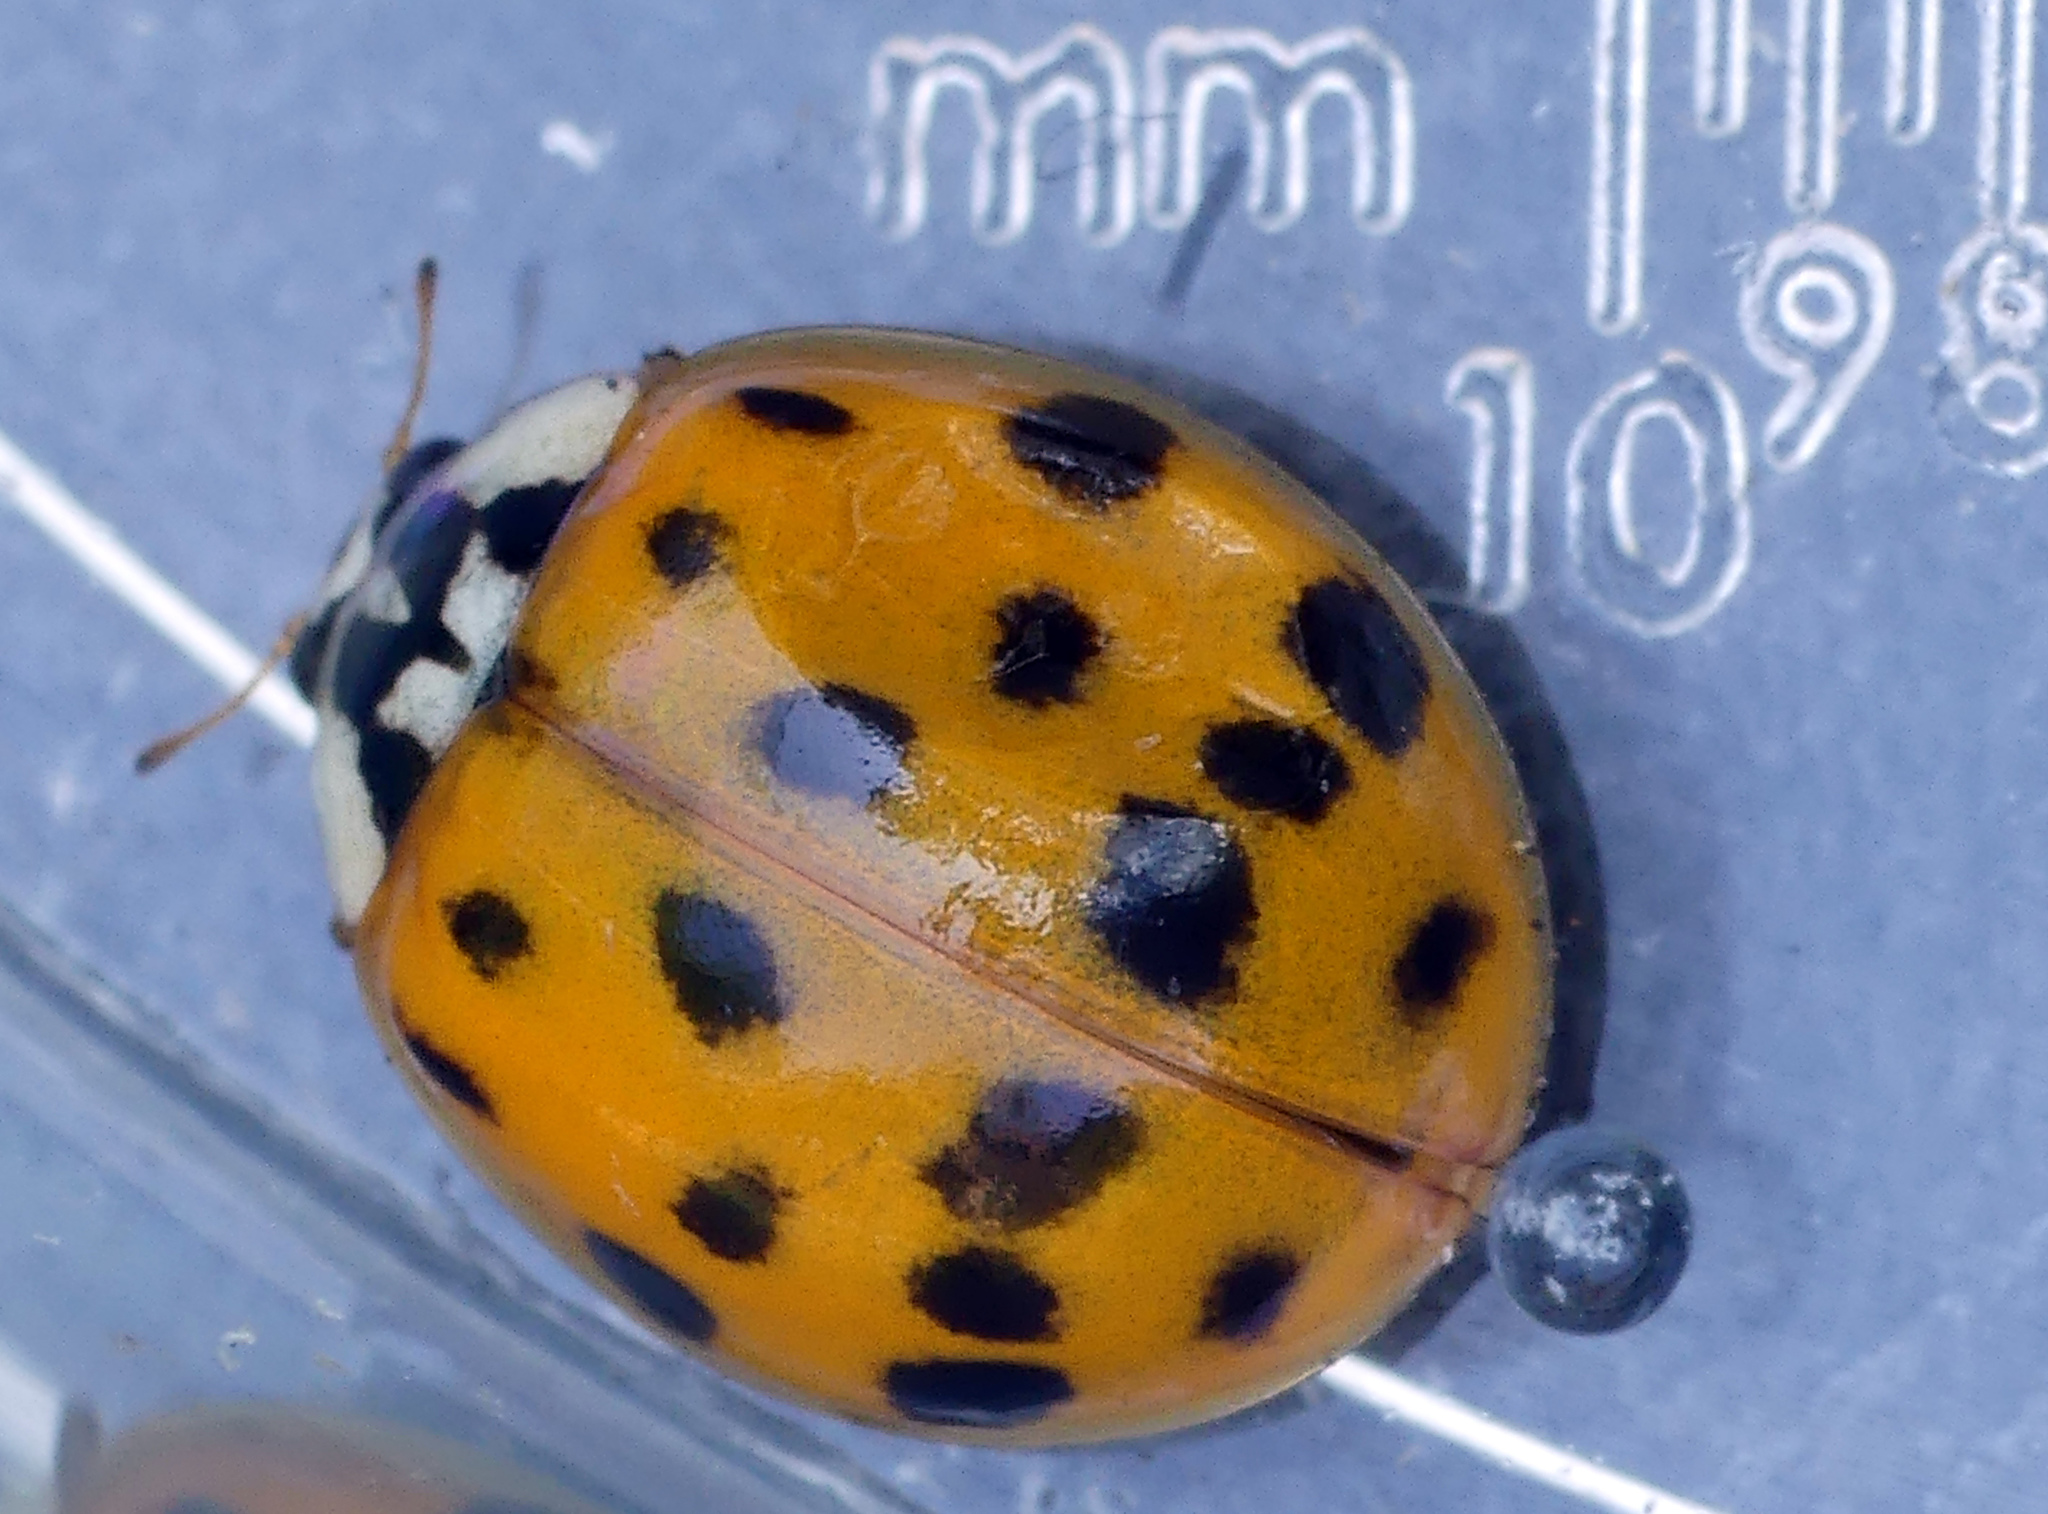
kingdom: Animalia
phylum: Arthropoda
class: Insecta
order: Coleoptera
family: Coccinellidae
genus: Harmonia
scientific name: Harmonia axyridis
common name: Harlequin ladybird
